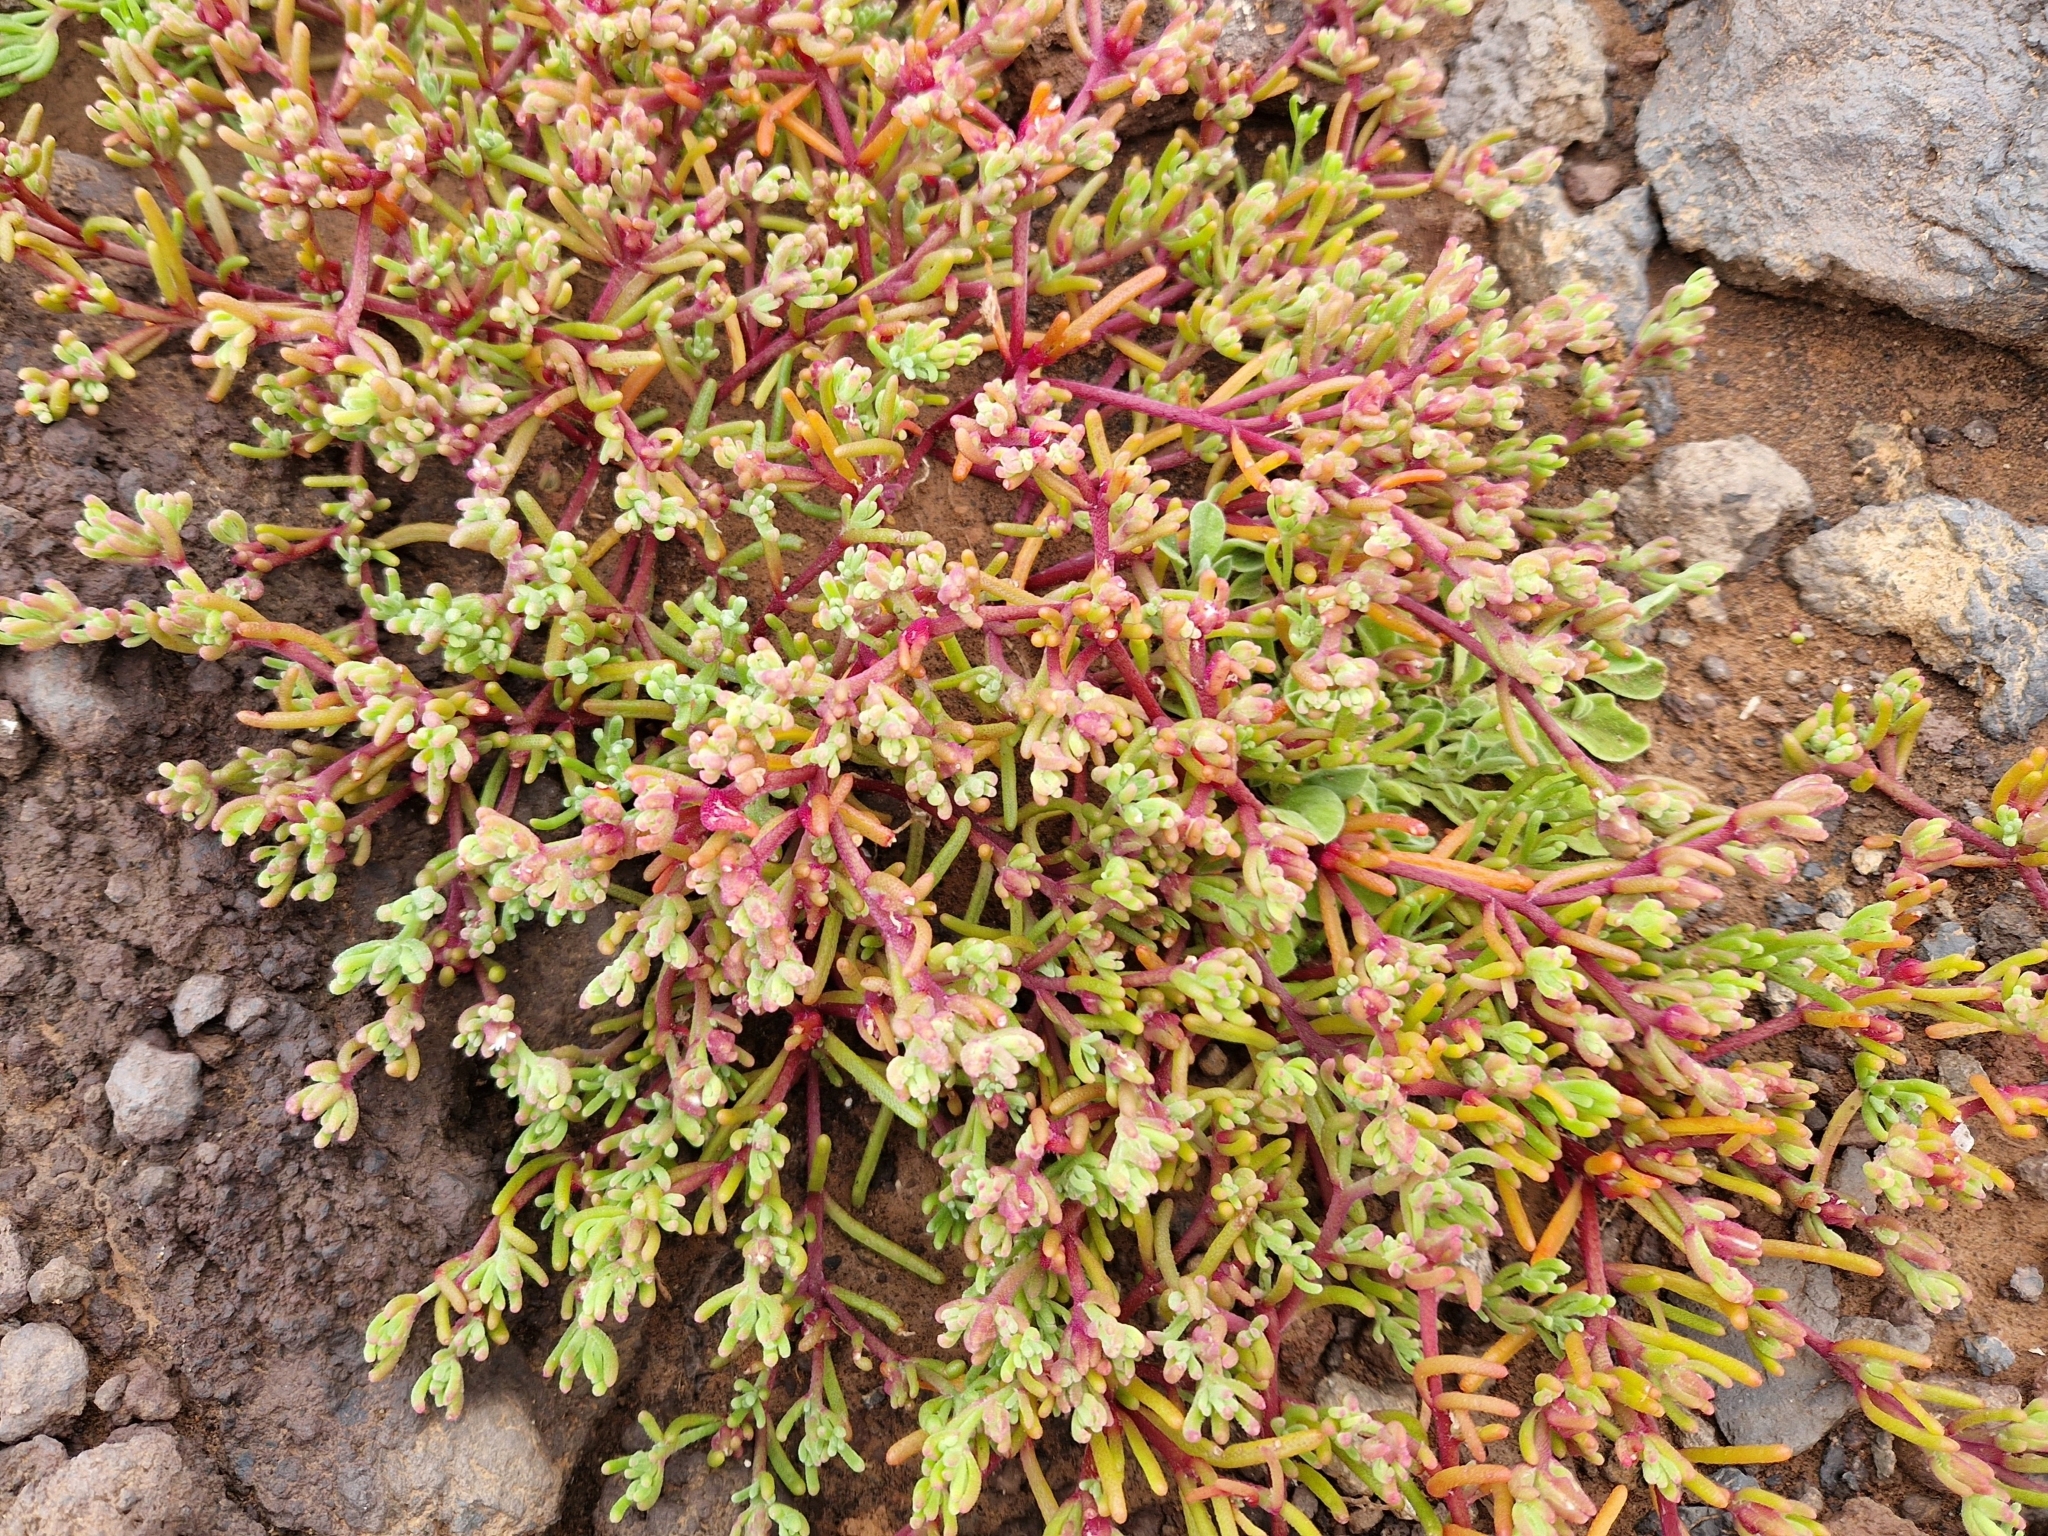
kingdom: Plantae
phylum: Tracheophyta
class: Magnoliopsida
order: Caryophyllales
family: Aizoaceae
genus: Mesembryanthemum
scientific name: Mesembryanthemum nodiflorum
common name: Slenderleaf iceplant
